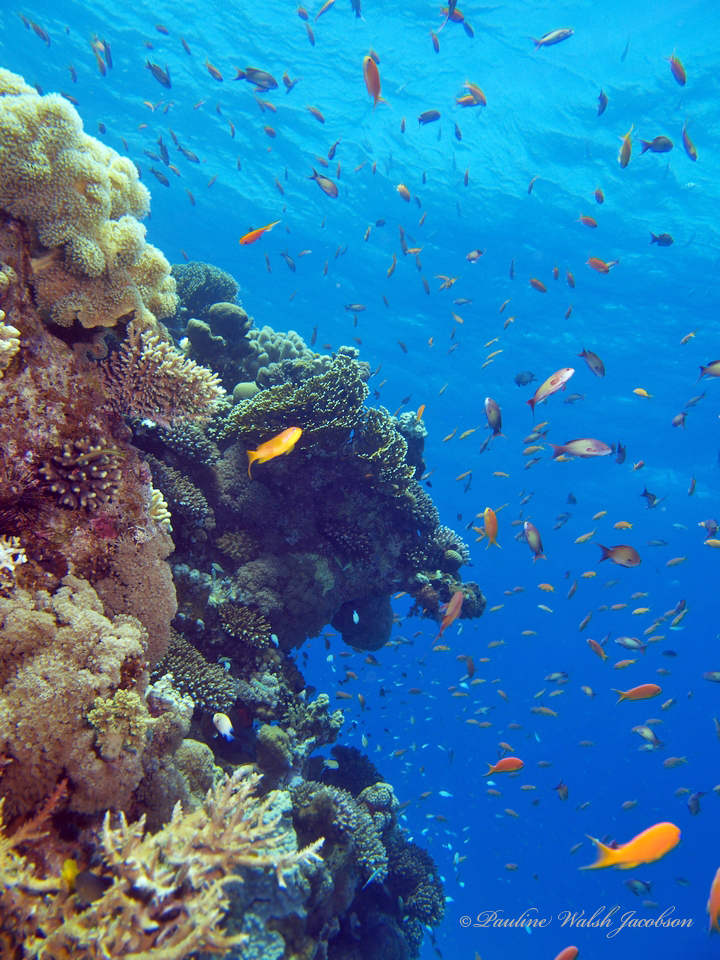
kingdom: Animalia
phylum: Chordata
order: Perciformes
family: Serranidae
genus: Pseudanthias
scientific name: Pseudanthias squamipinnis
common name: Scalefin anthias
